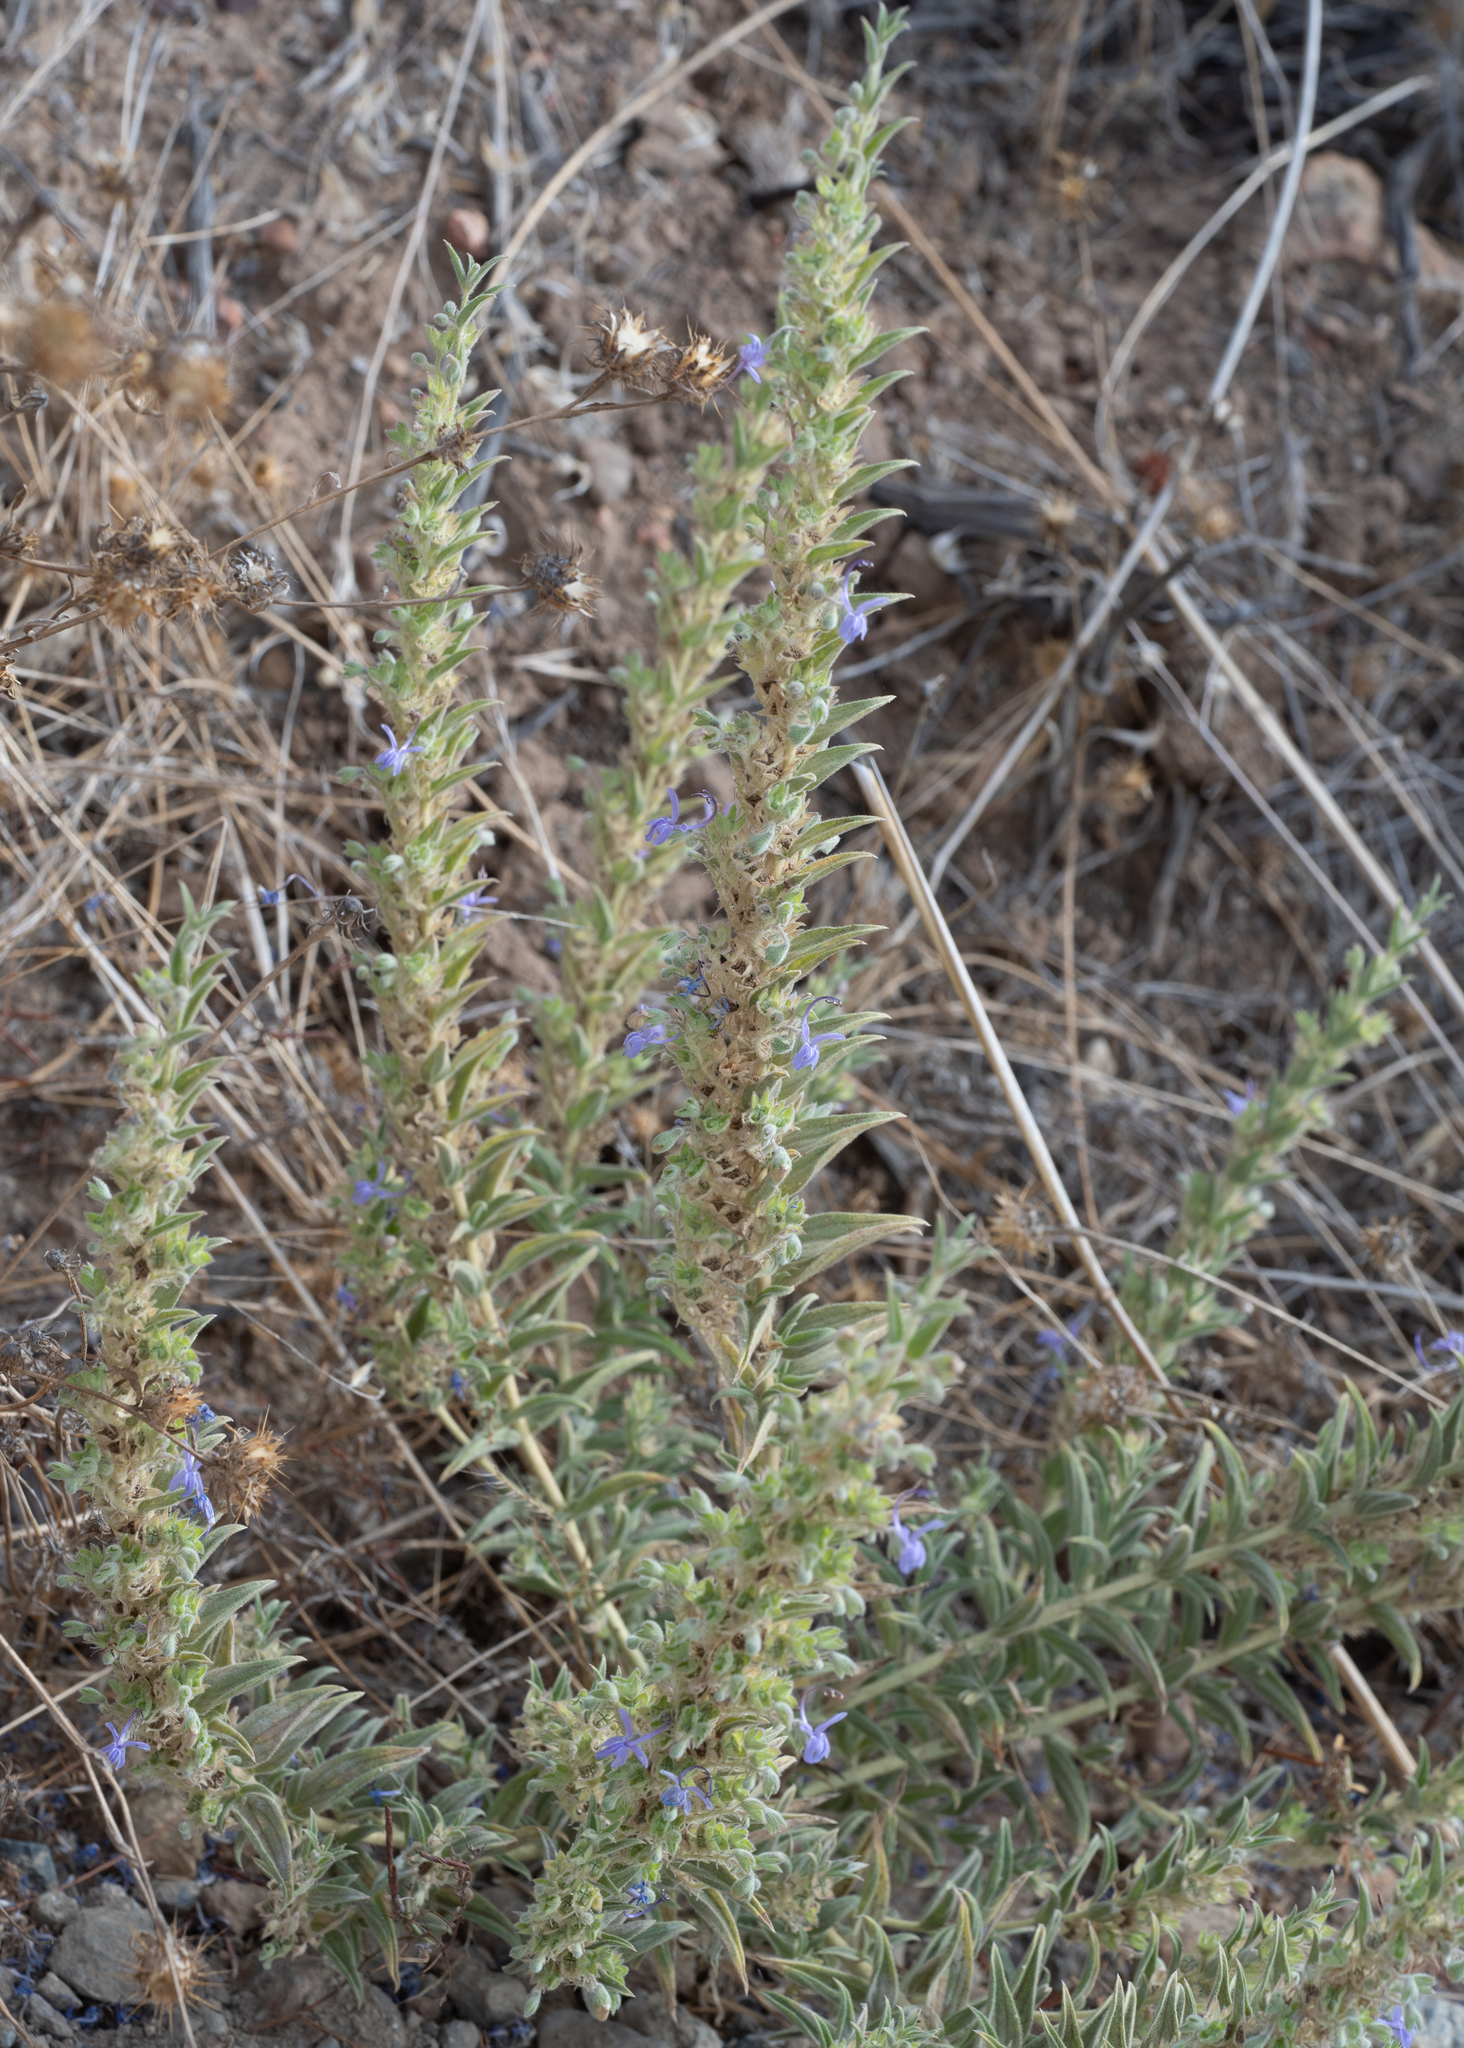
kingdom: Plantae
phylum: Tracheophyta
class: Magnoliopsida
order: Lamiales
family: Lamiaceae
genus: Trichostema
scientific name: Trichostema lanceolatum
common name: Vinegar-weed
